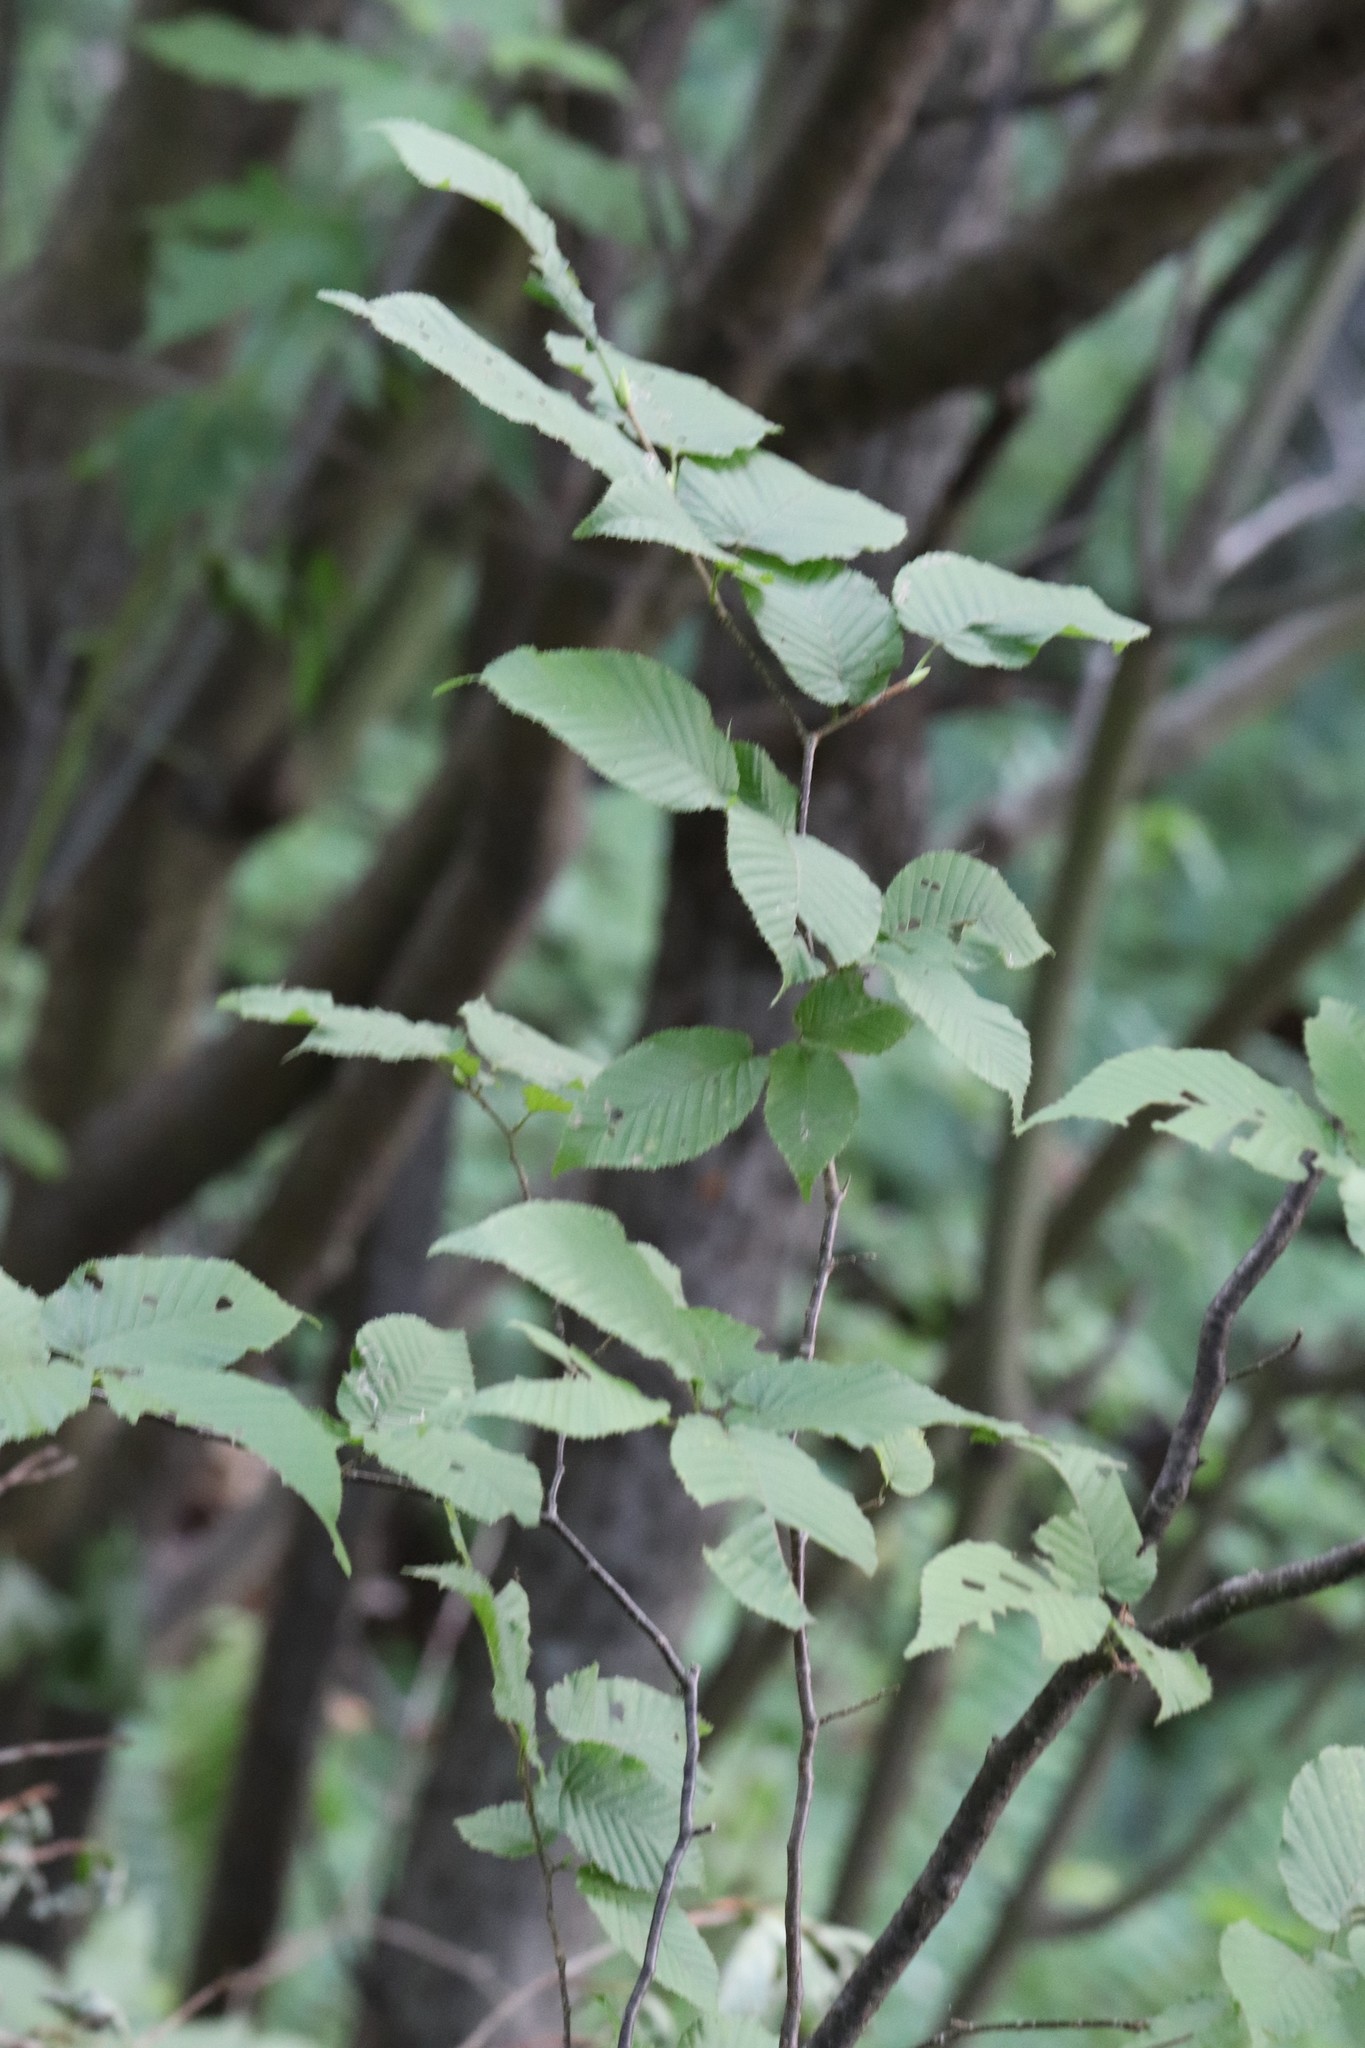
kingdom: Plantae
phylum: Tracheophyta
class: Magnoliopsida
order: Fagales
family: Betulaceae
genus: Carpinus
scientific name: Carpinus cordata
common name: Sawa hornbeam
